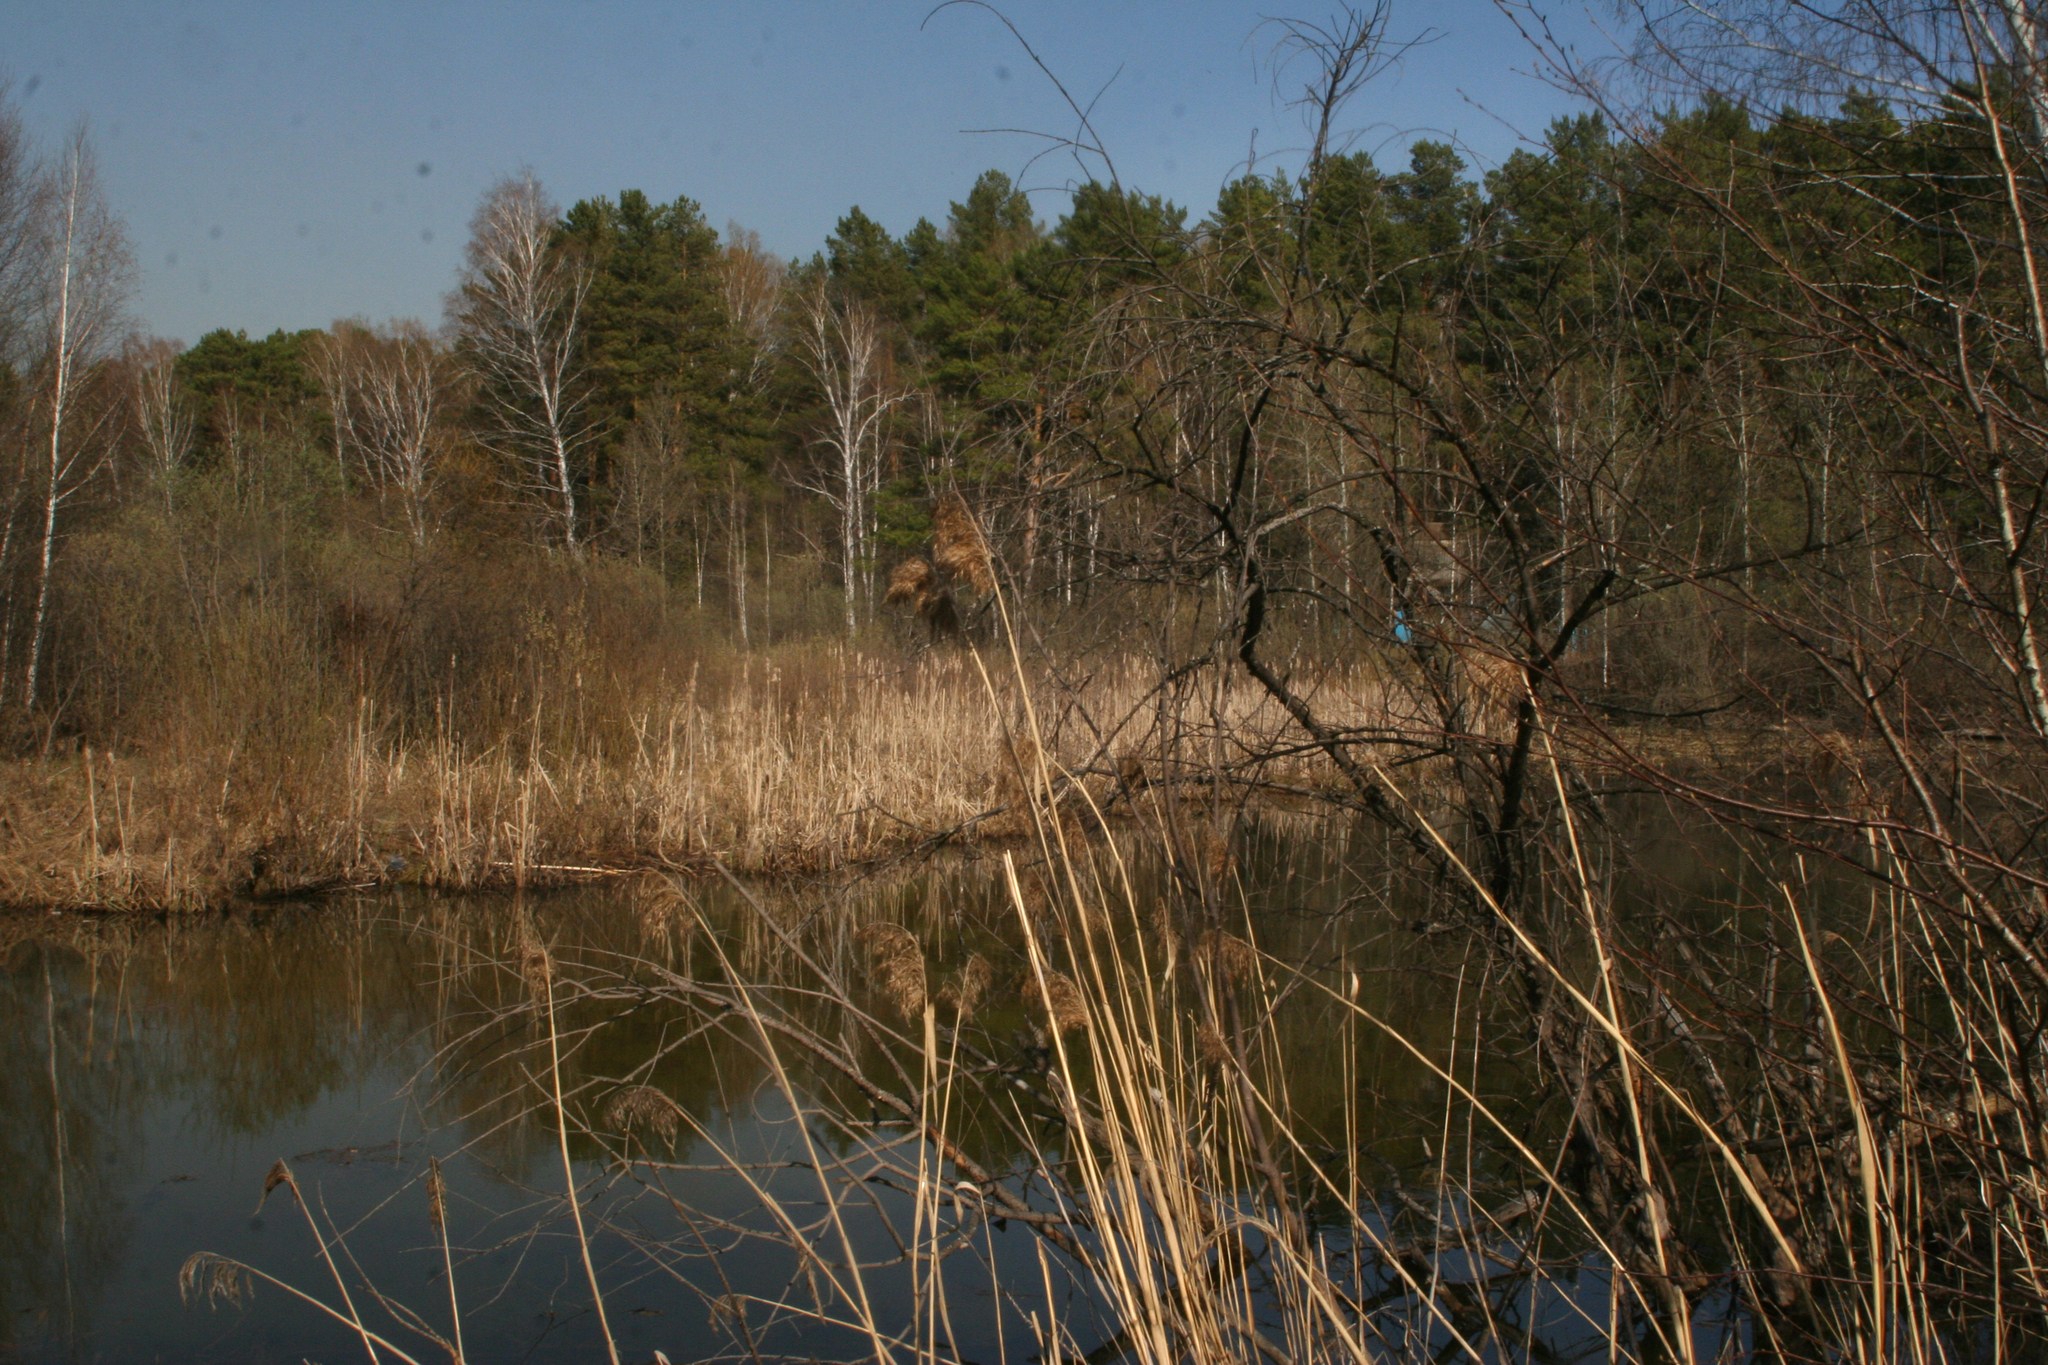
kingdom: Plantae
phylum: Tracheophyta
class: Liliopsida
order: Poales
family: Poaceae
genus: Phragmites
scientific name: Phragmites australis
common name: Common reed
